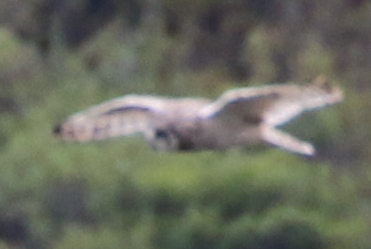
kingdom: Animalia
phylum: Chordata
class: Aves
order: Strigiformes
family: Strigidae
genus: Asio
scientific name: Asio flammeus
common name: Short-eared owl
